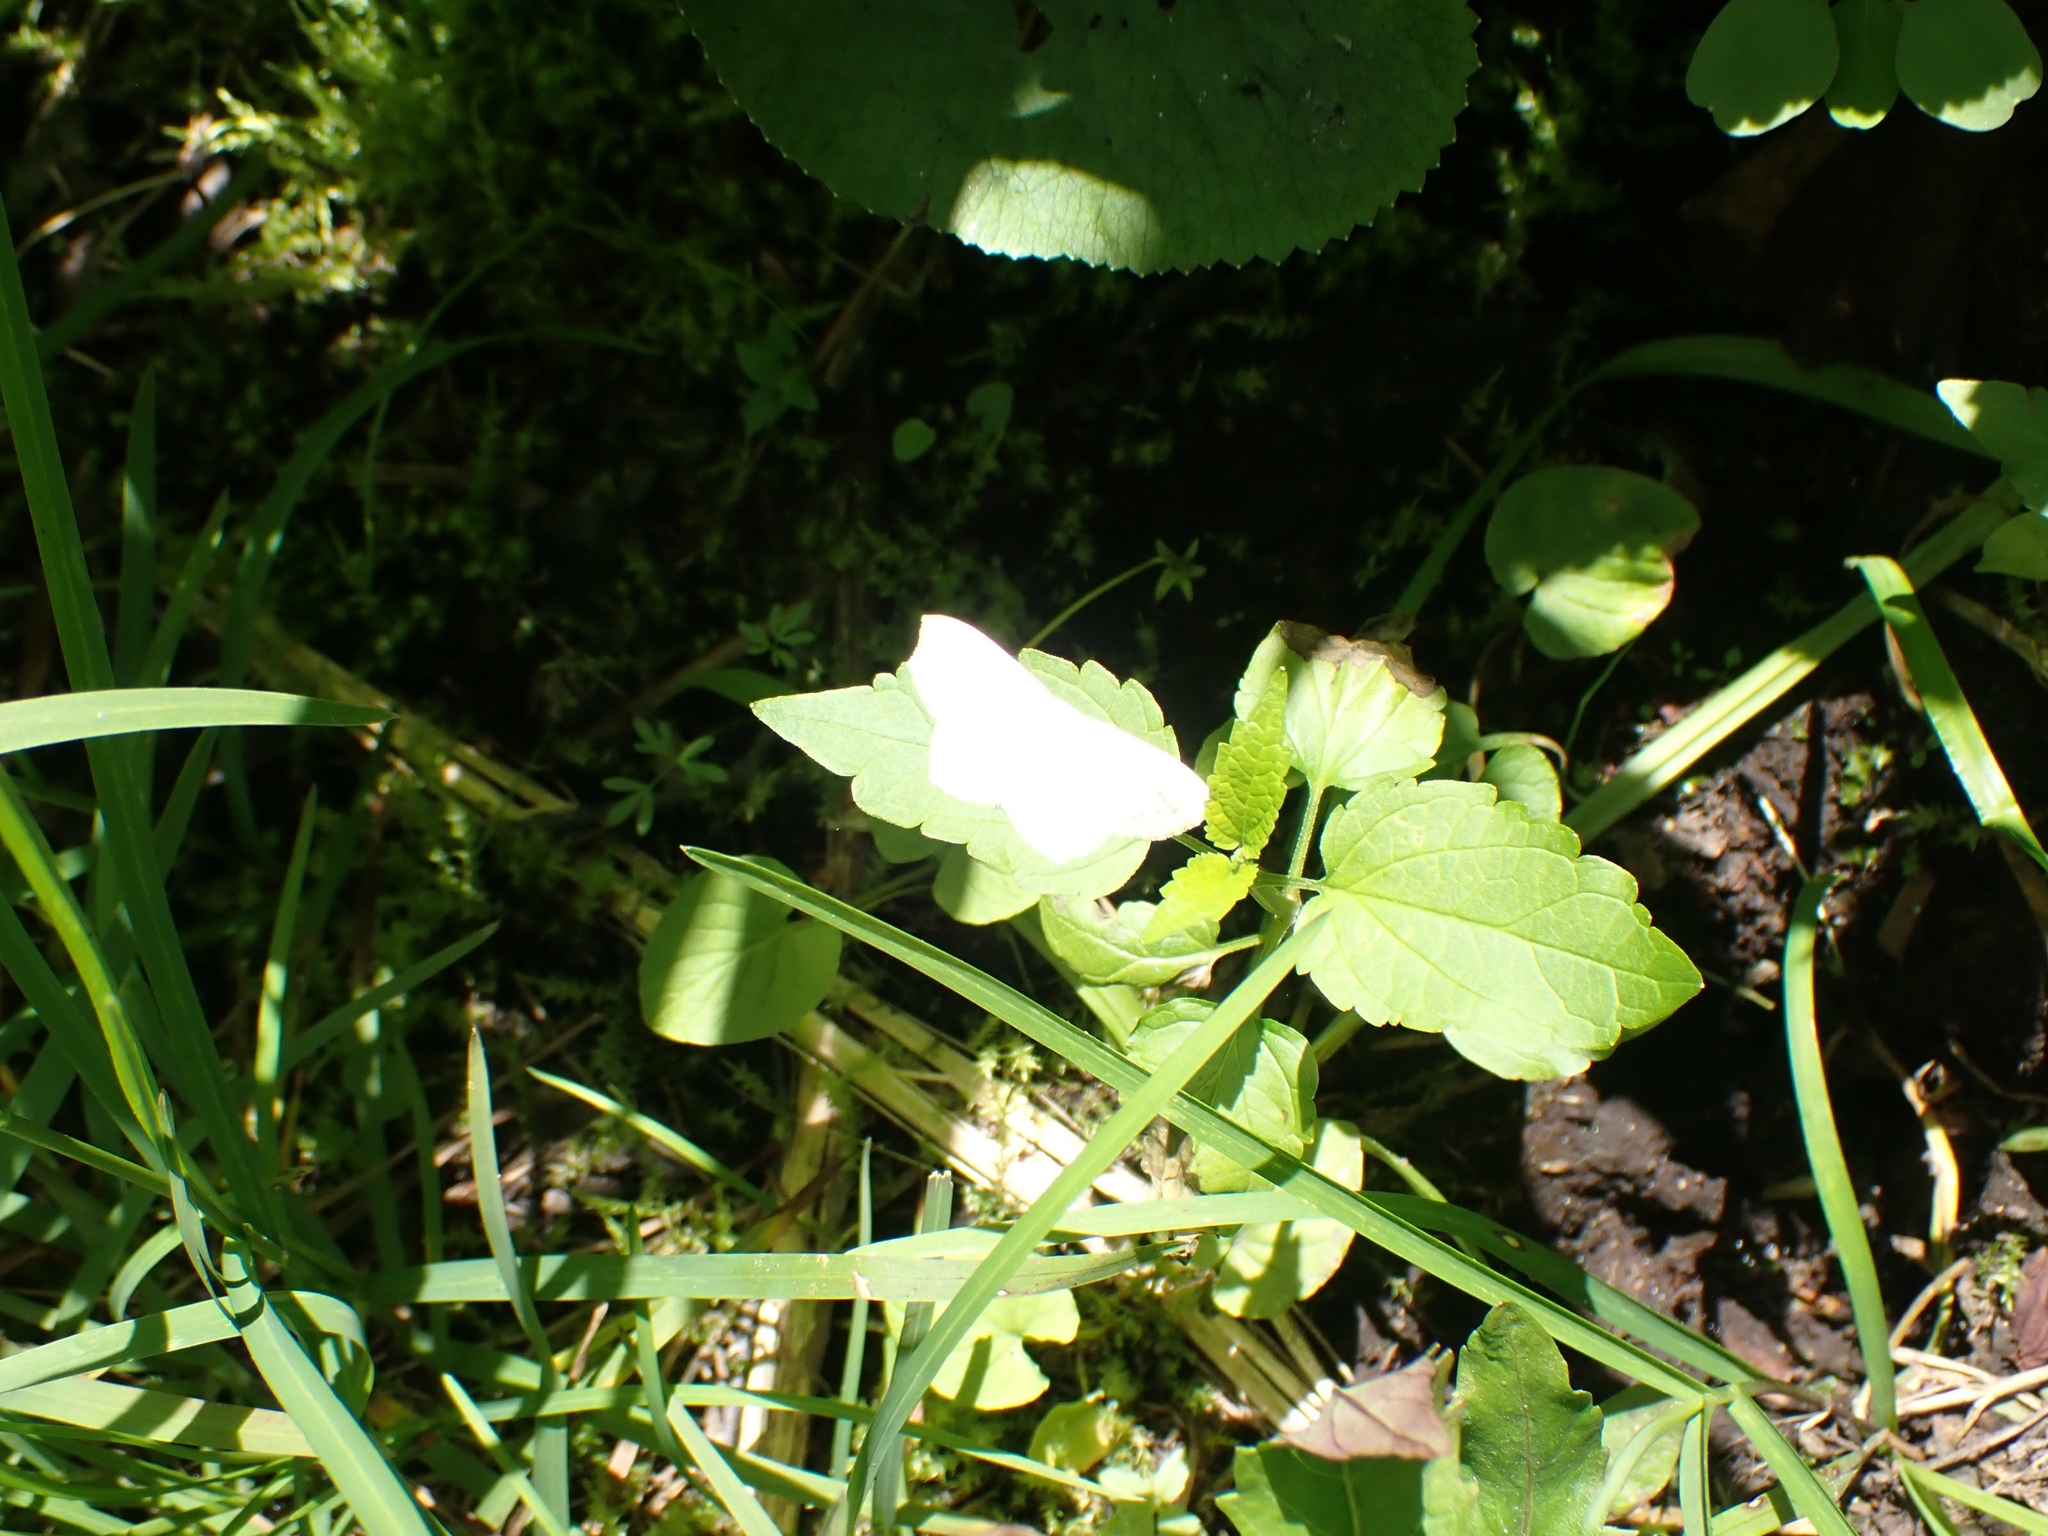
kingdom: Plantae
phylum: Tracheophyta
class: Magnoliopsida
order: Fagales
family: Betulaceae
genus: Alnus
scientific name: Alnus incana
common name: Grey alder
